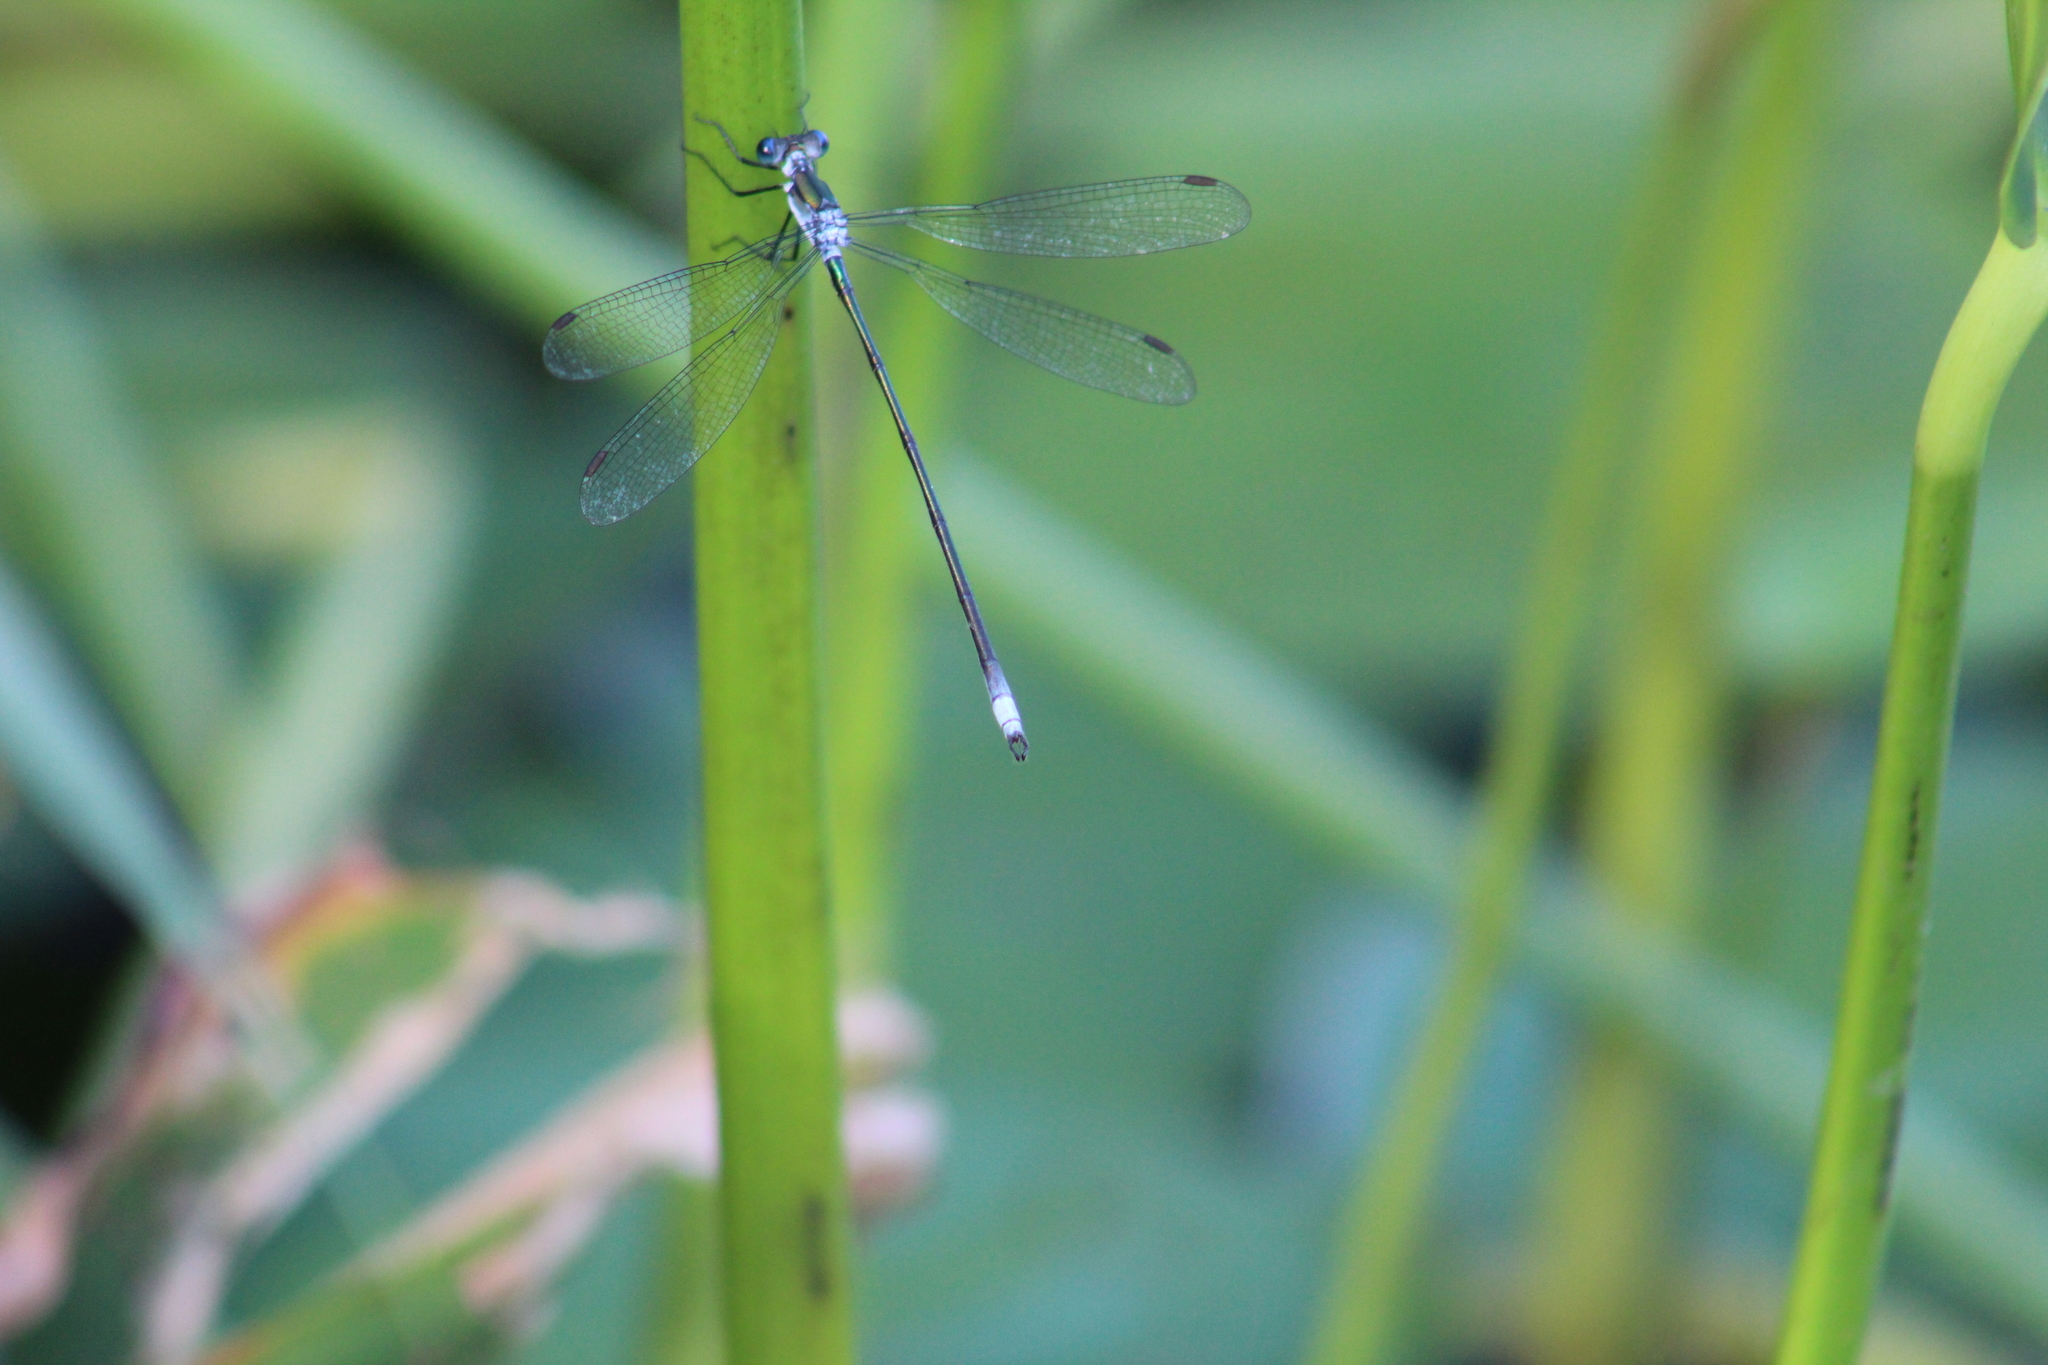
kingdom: Animalia
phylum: Arthropoda
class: Insecta
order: Odonata
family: Lestidae
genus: Lestes
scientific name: Lestes vigilax
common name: Swamp spreadwing
